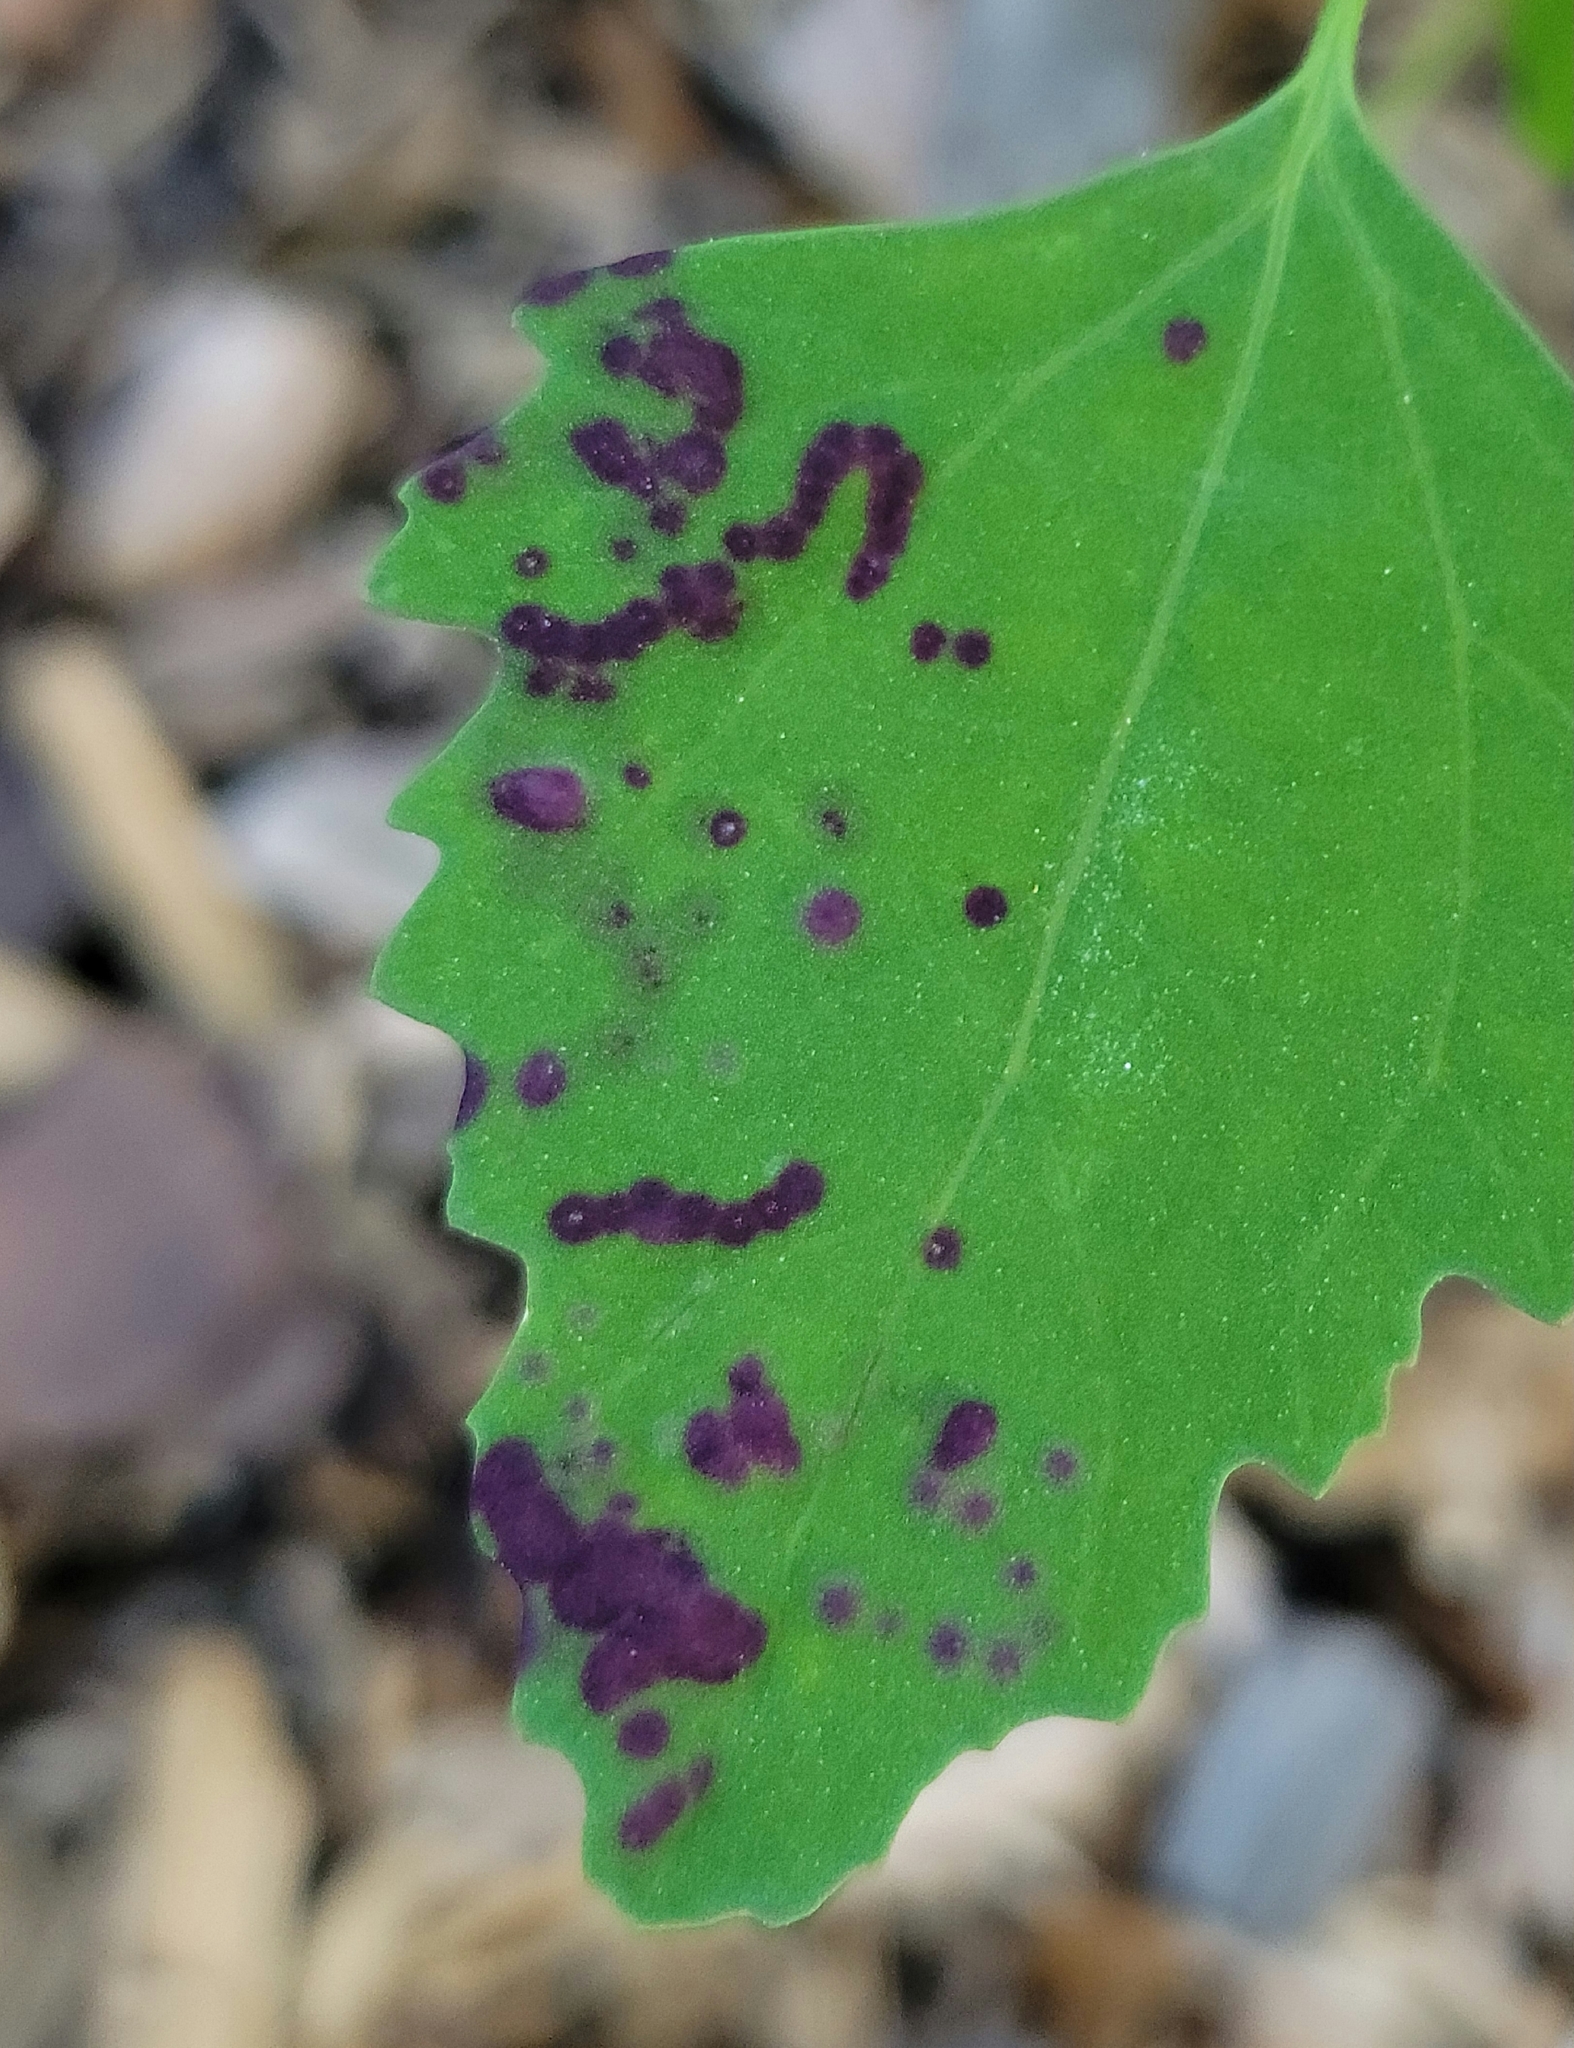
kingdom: Animalia
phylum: Arthropoda
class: Insecta
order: Hemiptera
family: Cicadellidae
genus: Norvellina
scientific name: Norvellina chenopodii
